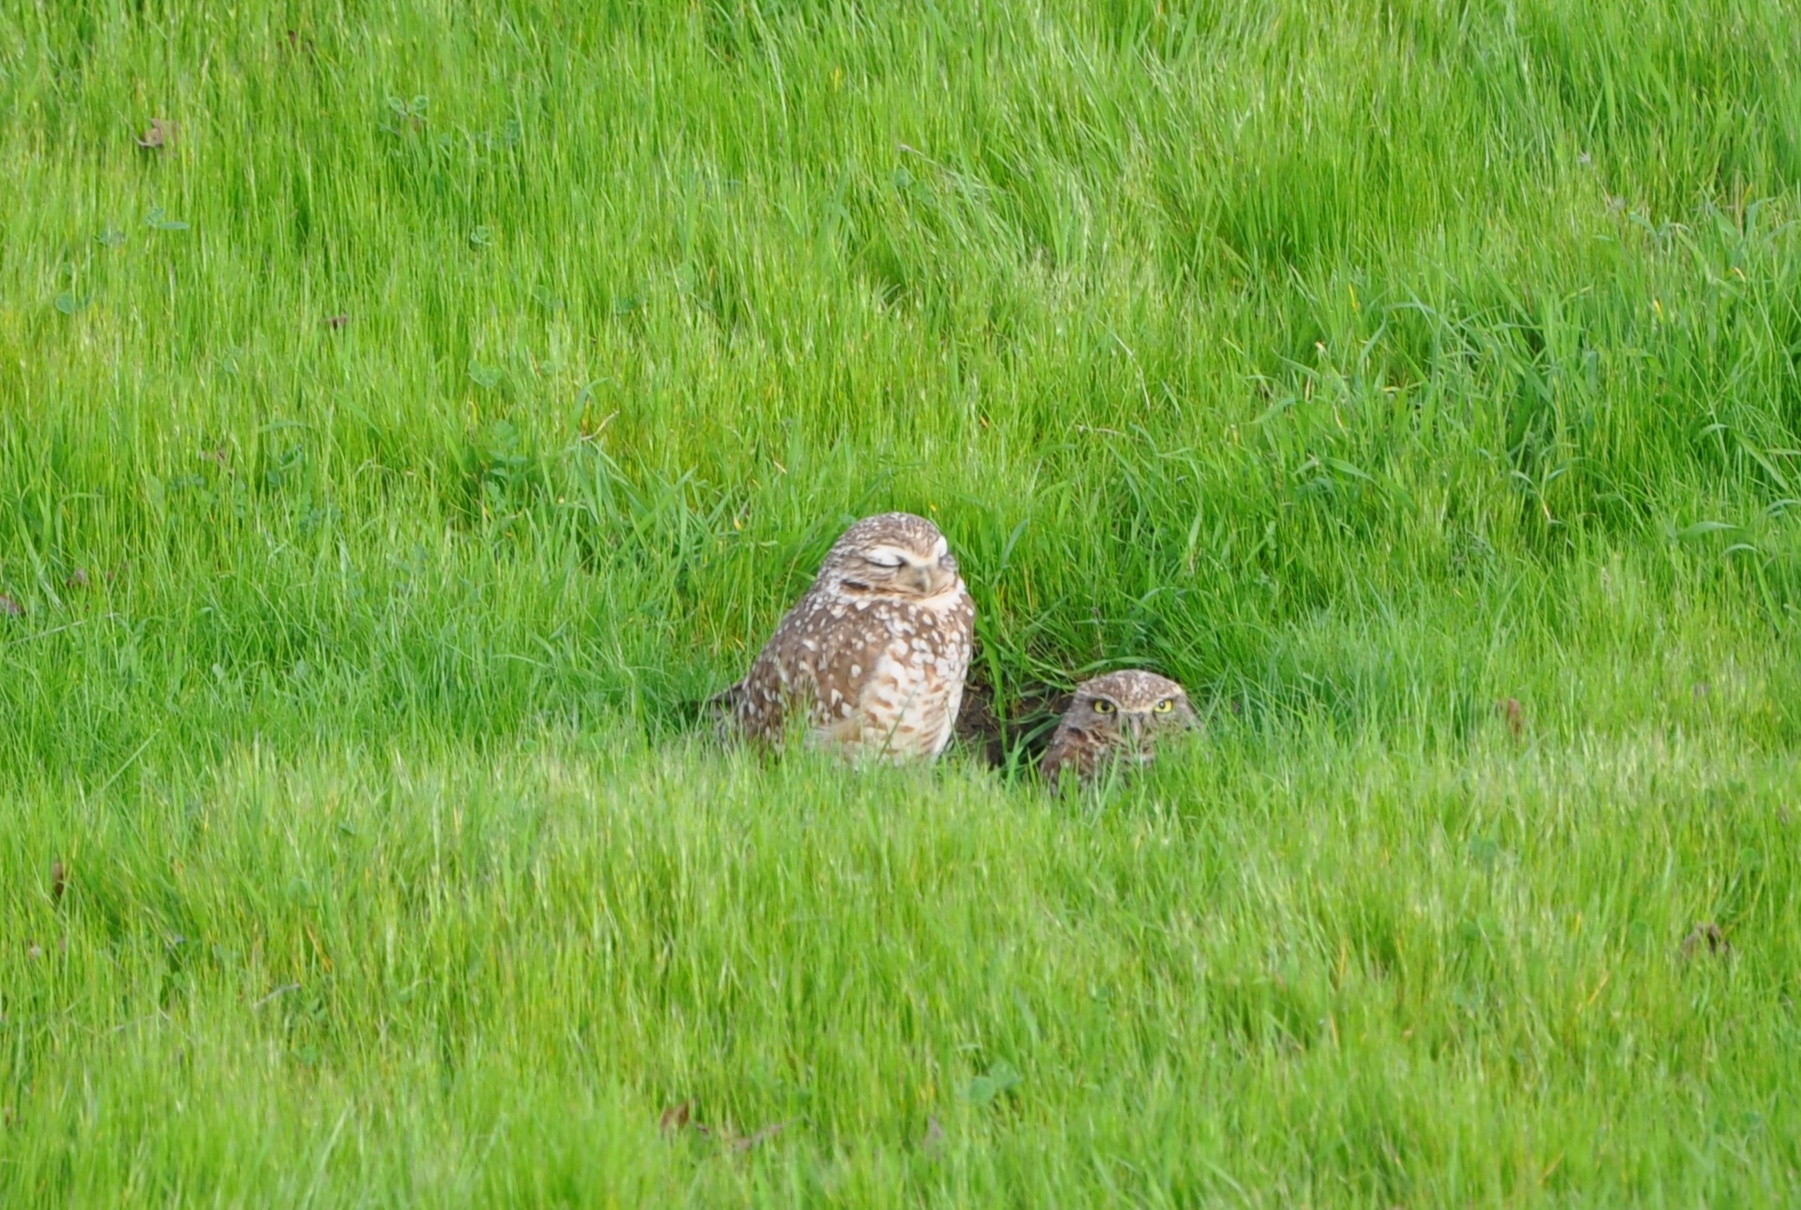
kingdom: Animalia
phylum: Chordata
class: Aves
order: Strigiformes
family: Strigidae
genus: Athene
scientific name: Athene cunicularia
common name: Burrowing owl
